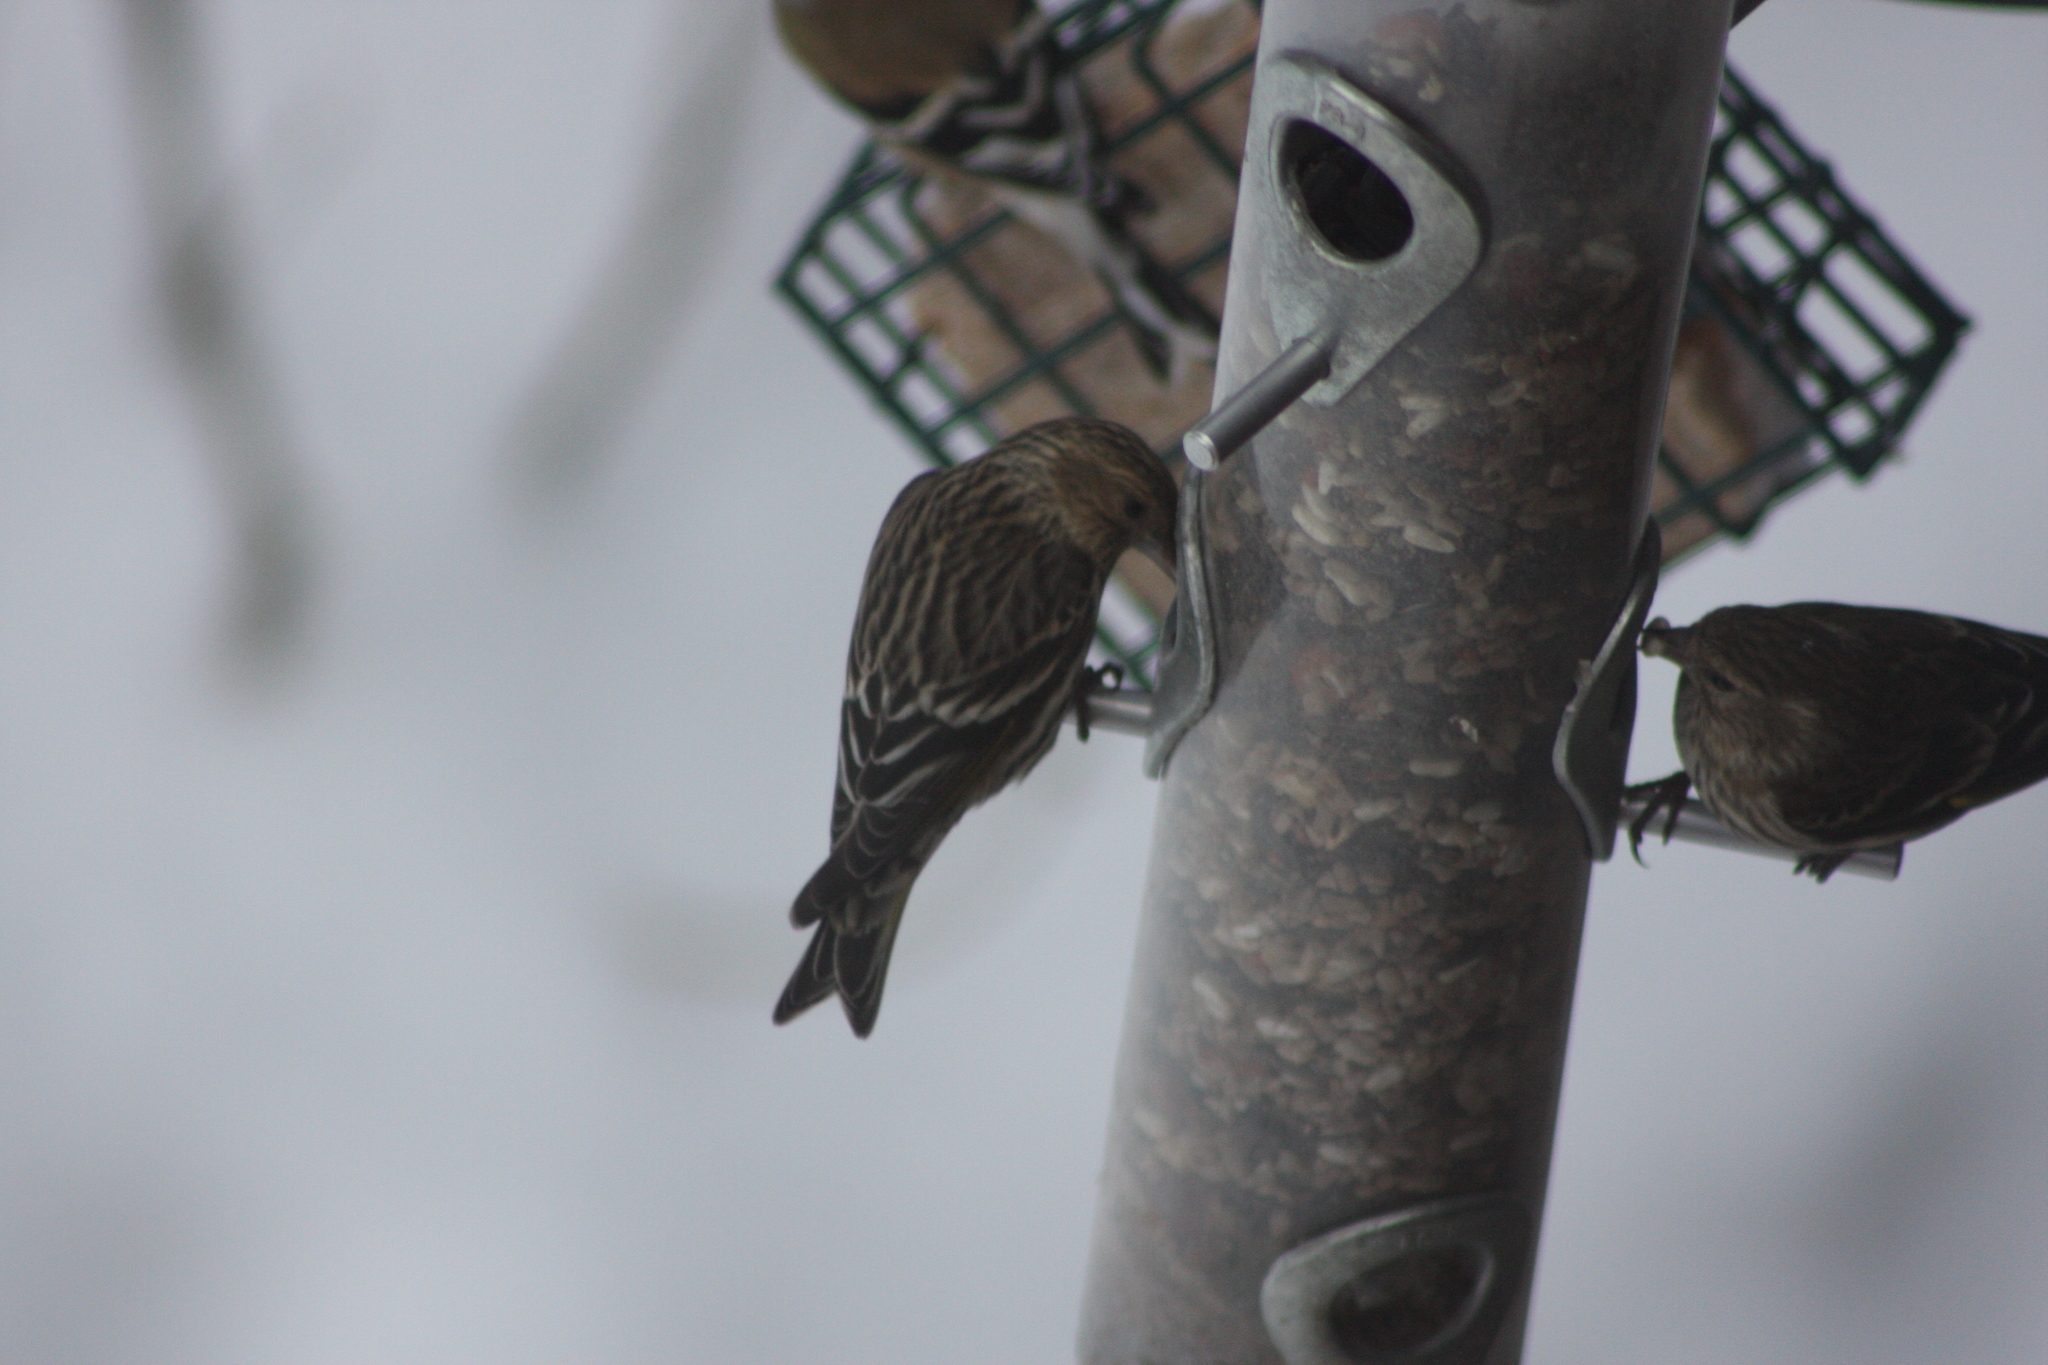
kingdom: Animalia
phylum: Chordata
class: Aves
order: Passeriformes
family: Fringillidae
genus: Spinus
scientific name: Spinus pinus
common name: Pine siskin
